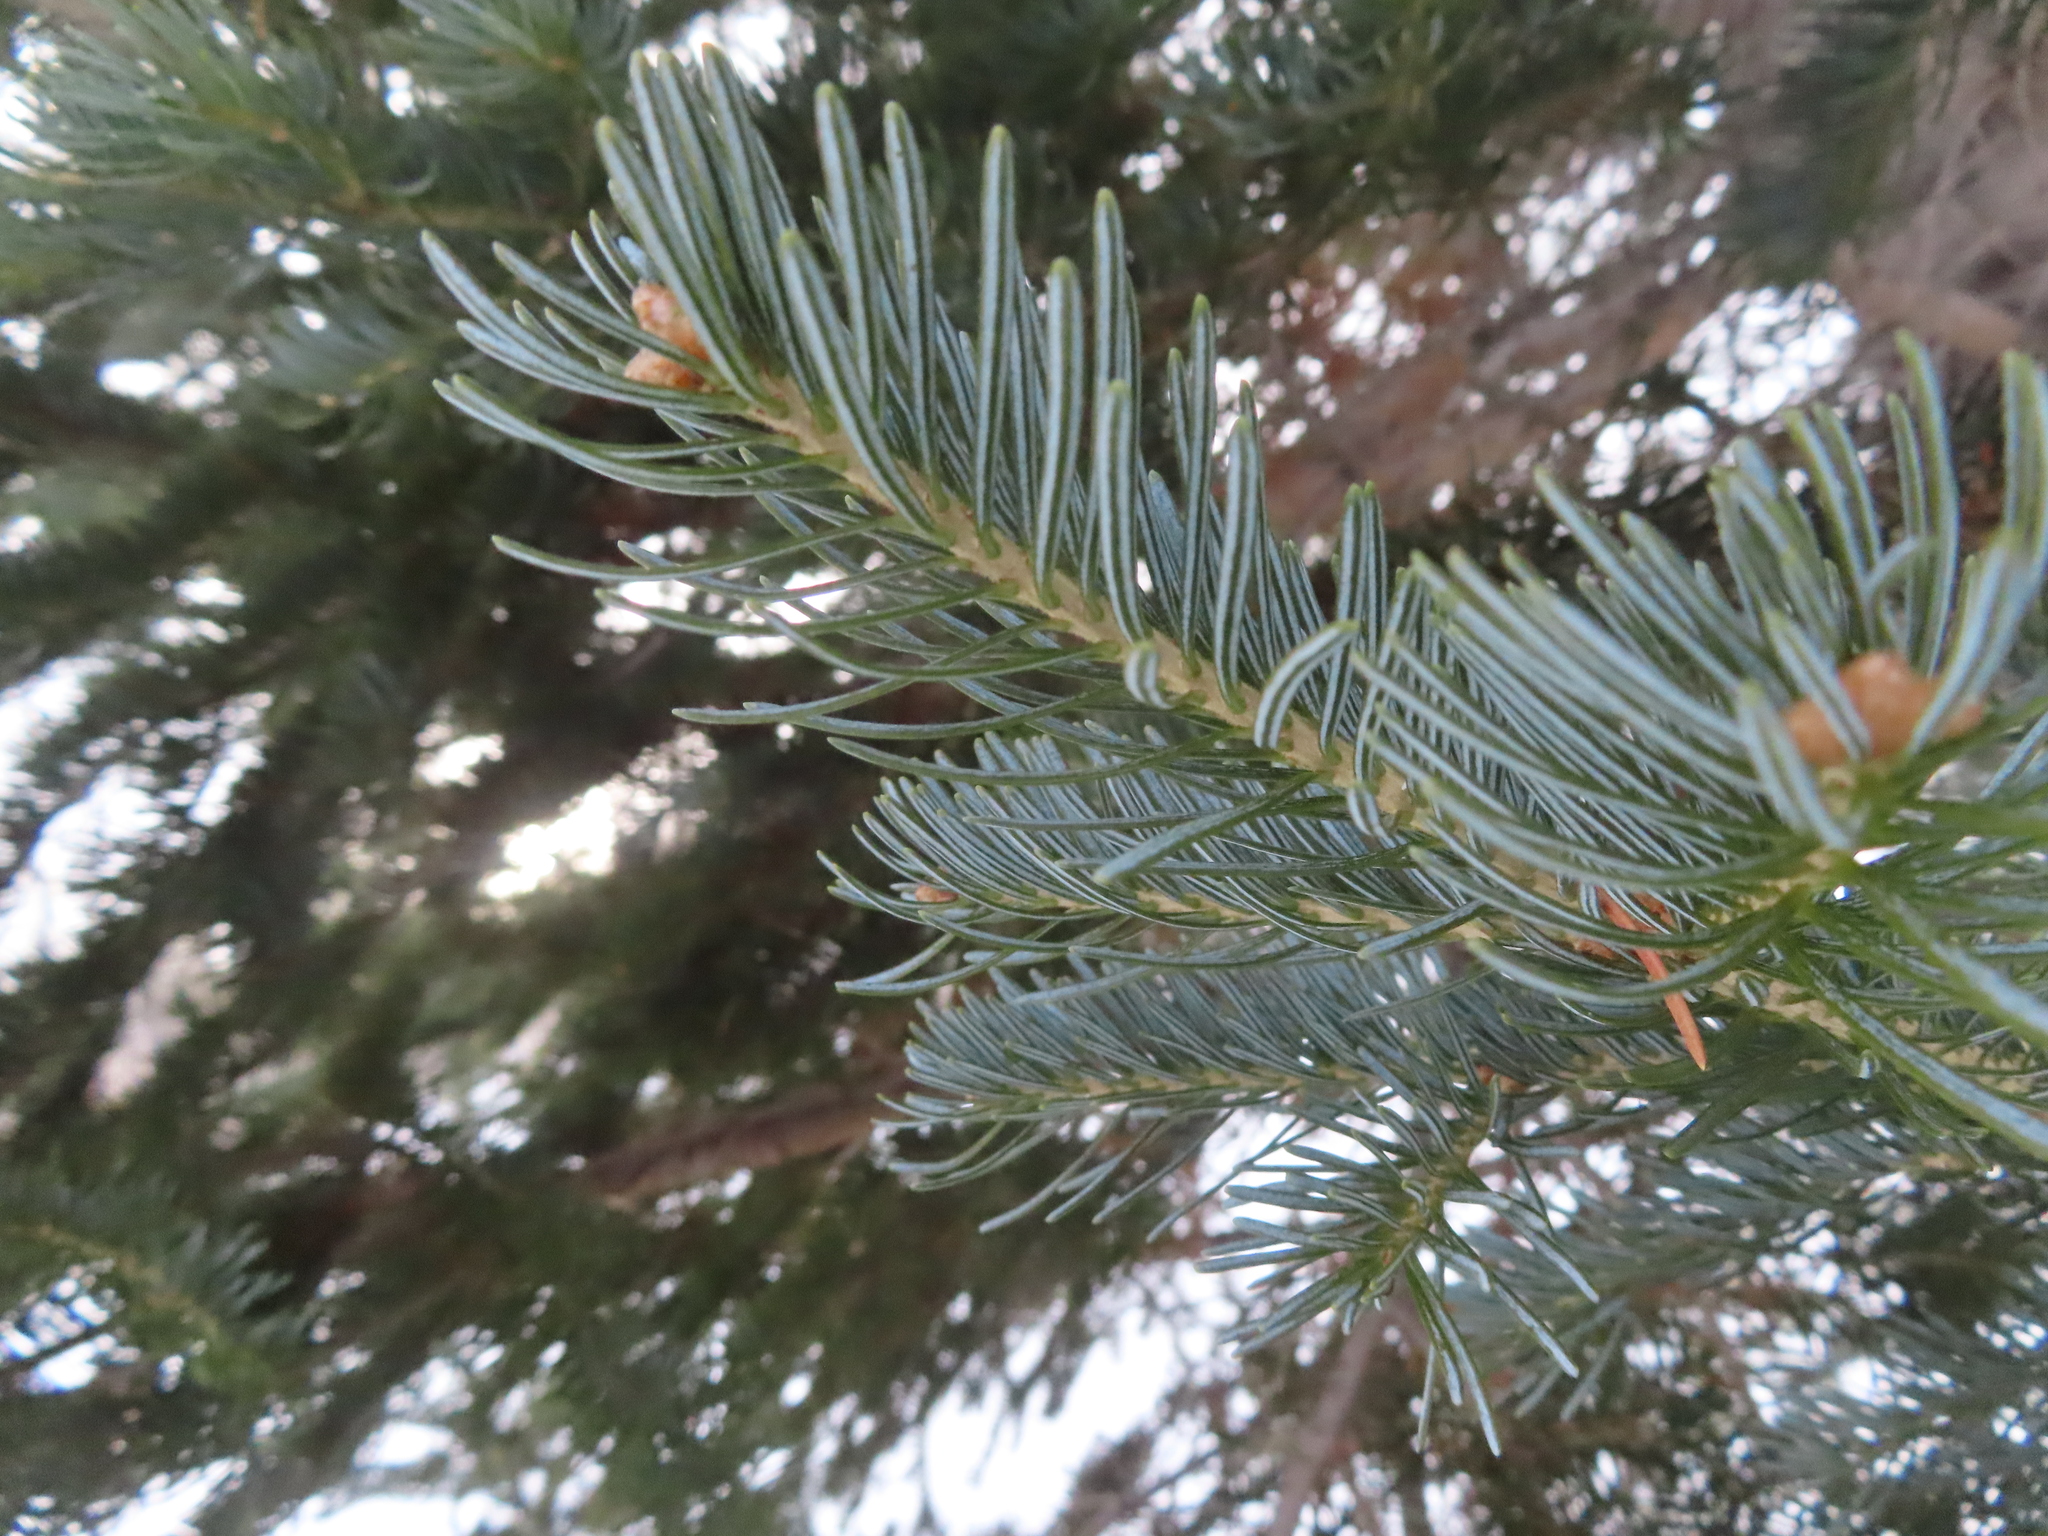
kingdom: Plantae
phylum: Tracheophyta
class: Pinopsida
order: Pinales
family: Pinaceae
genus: Abies
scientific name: Abies lasiocarpa
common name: Subalpine fir
